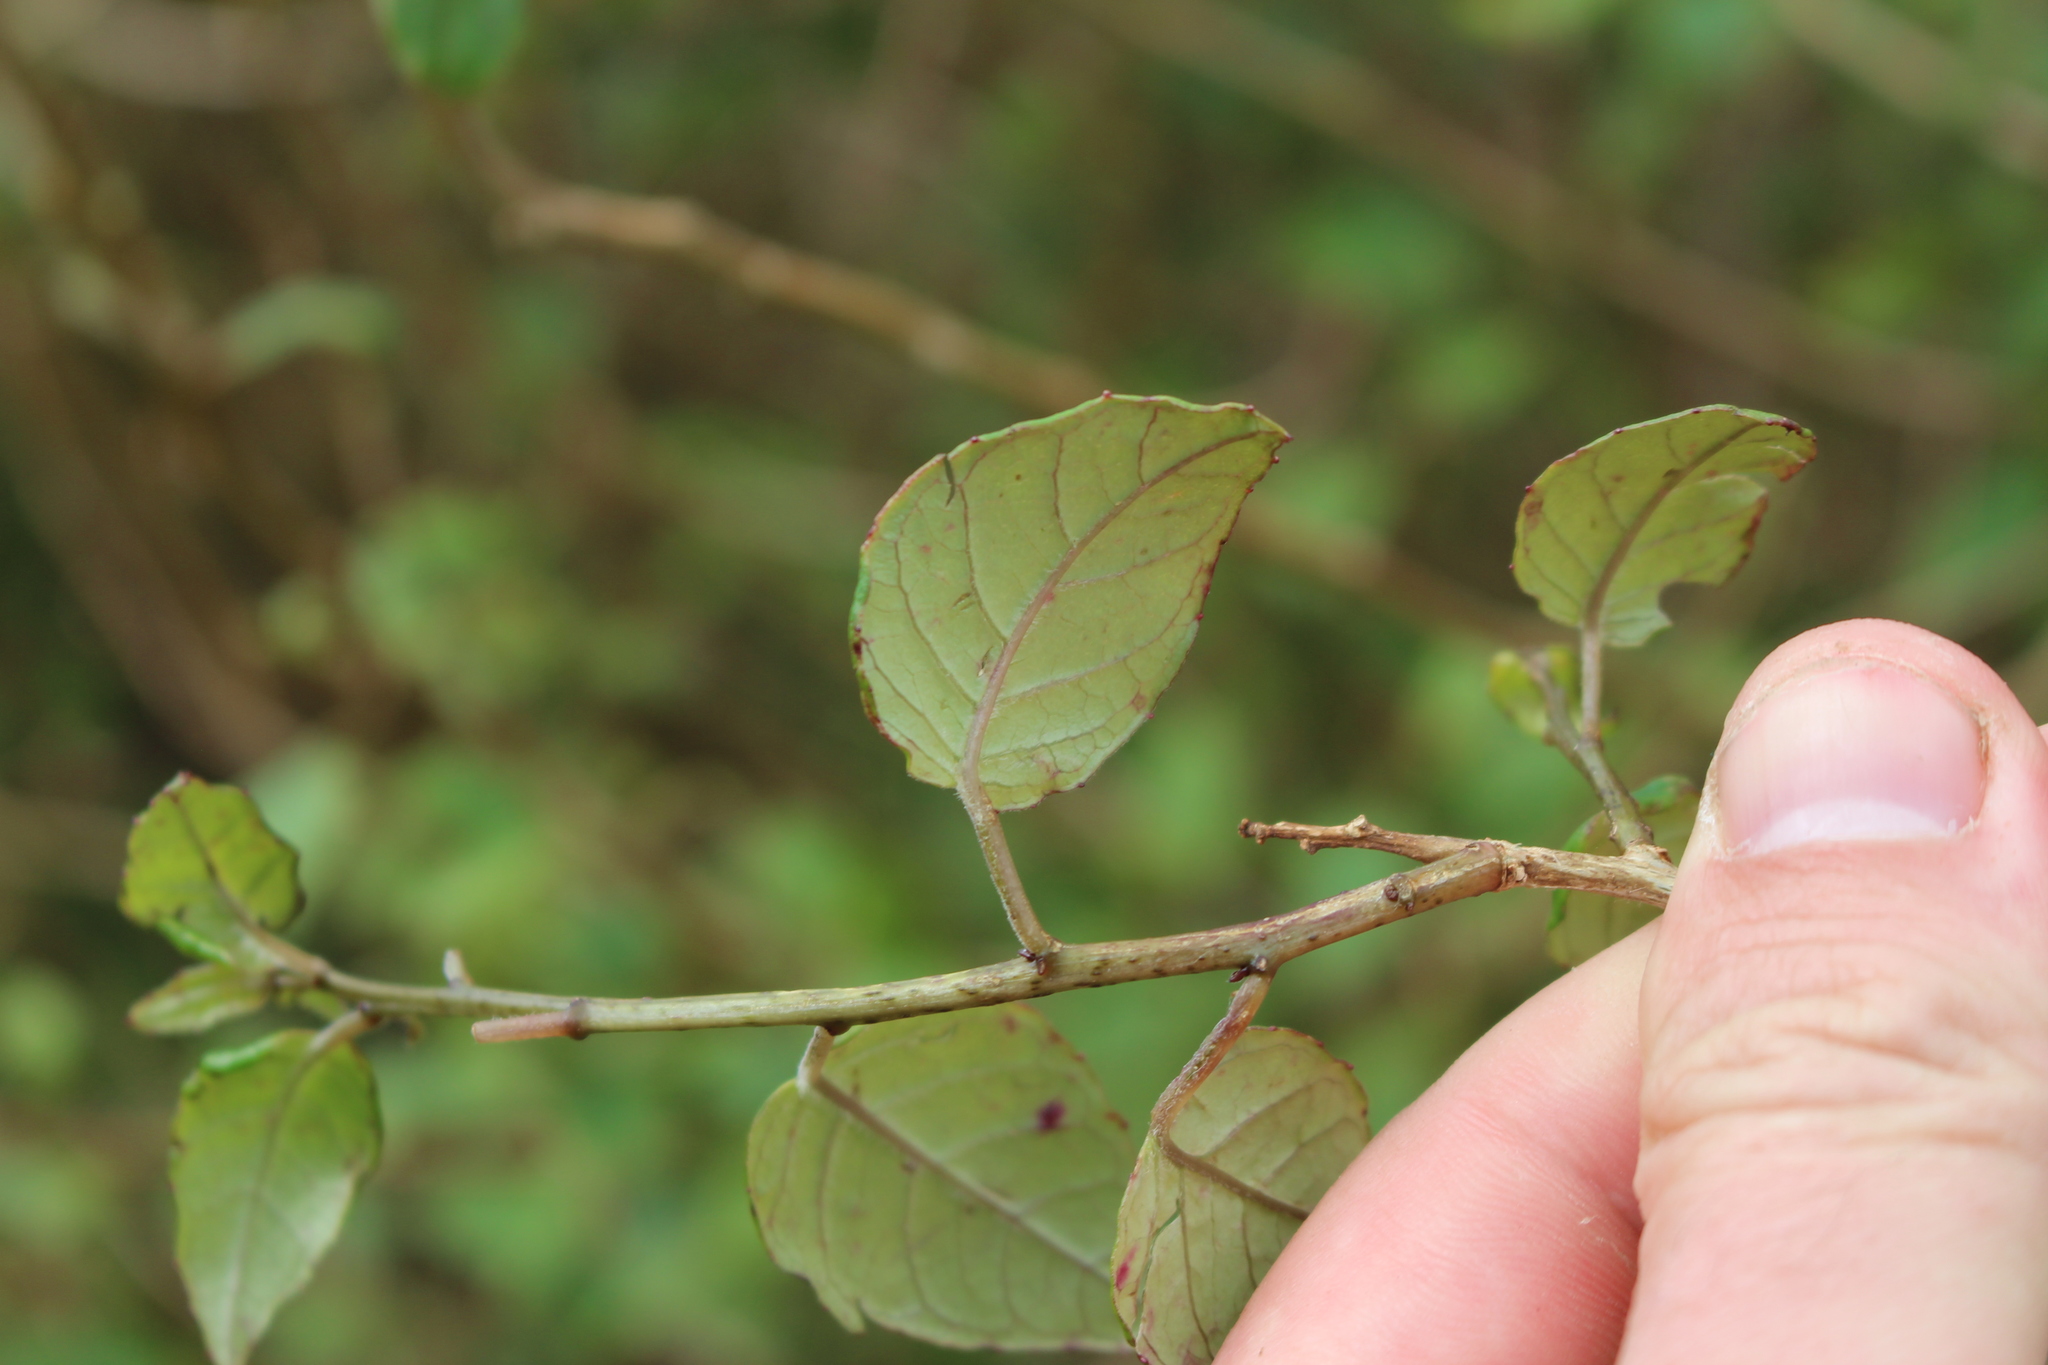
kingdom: Plantae
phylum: Tracheophyta
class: Magnoliopsida
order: Myrtales
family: Onagraceae
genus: Fuchsia
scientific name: Fuchsia colensoi
